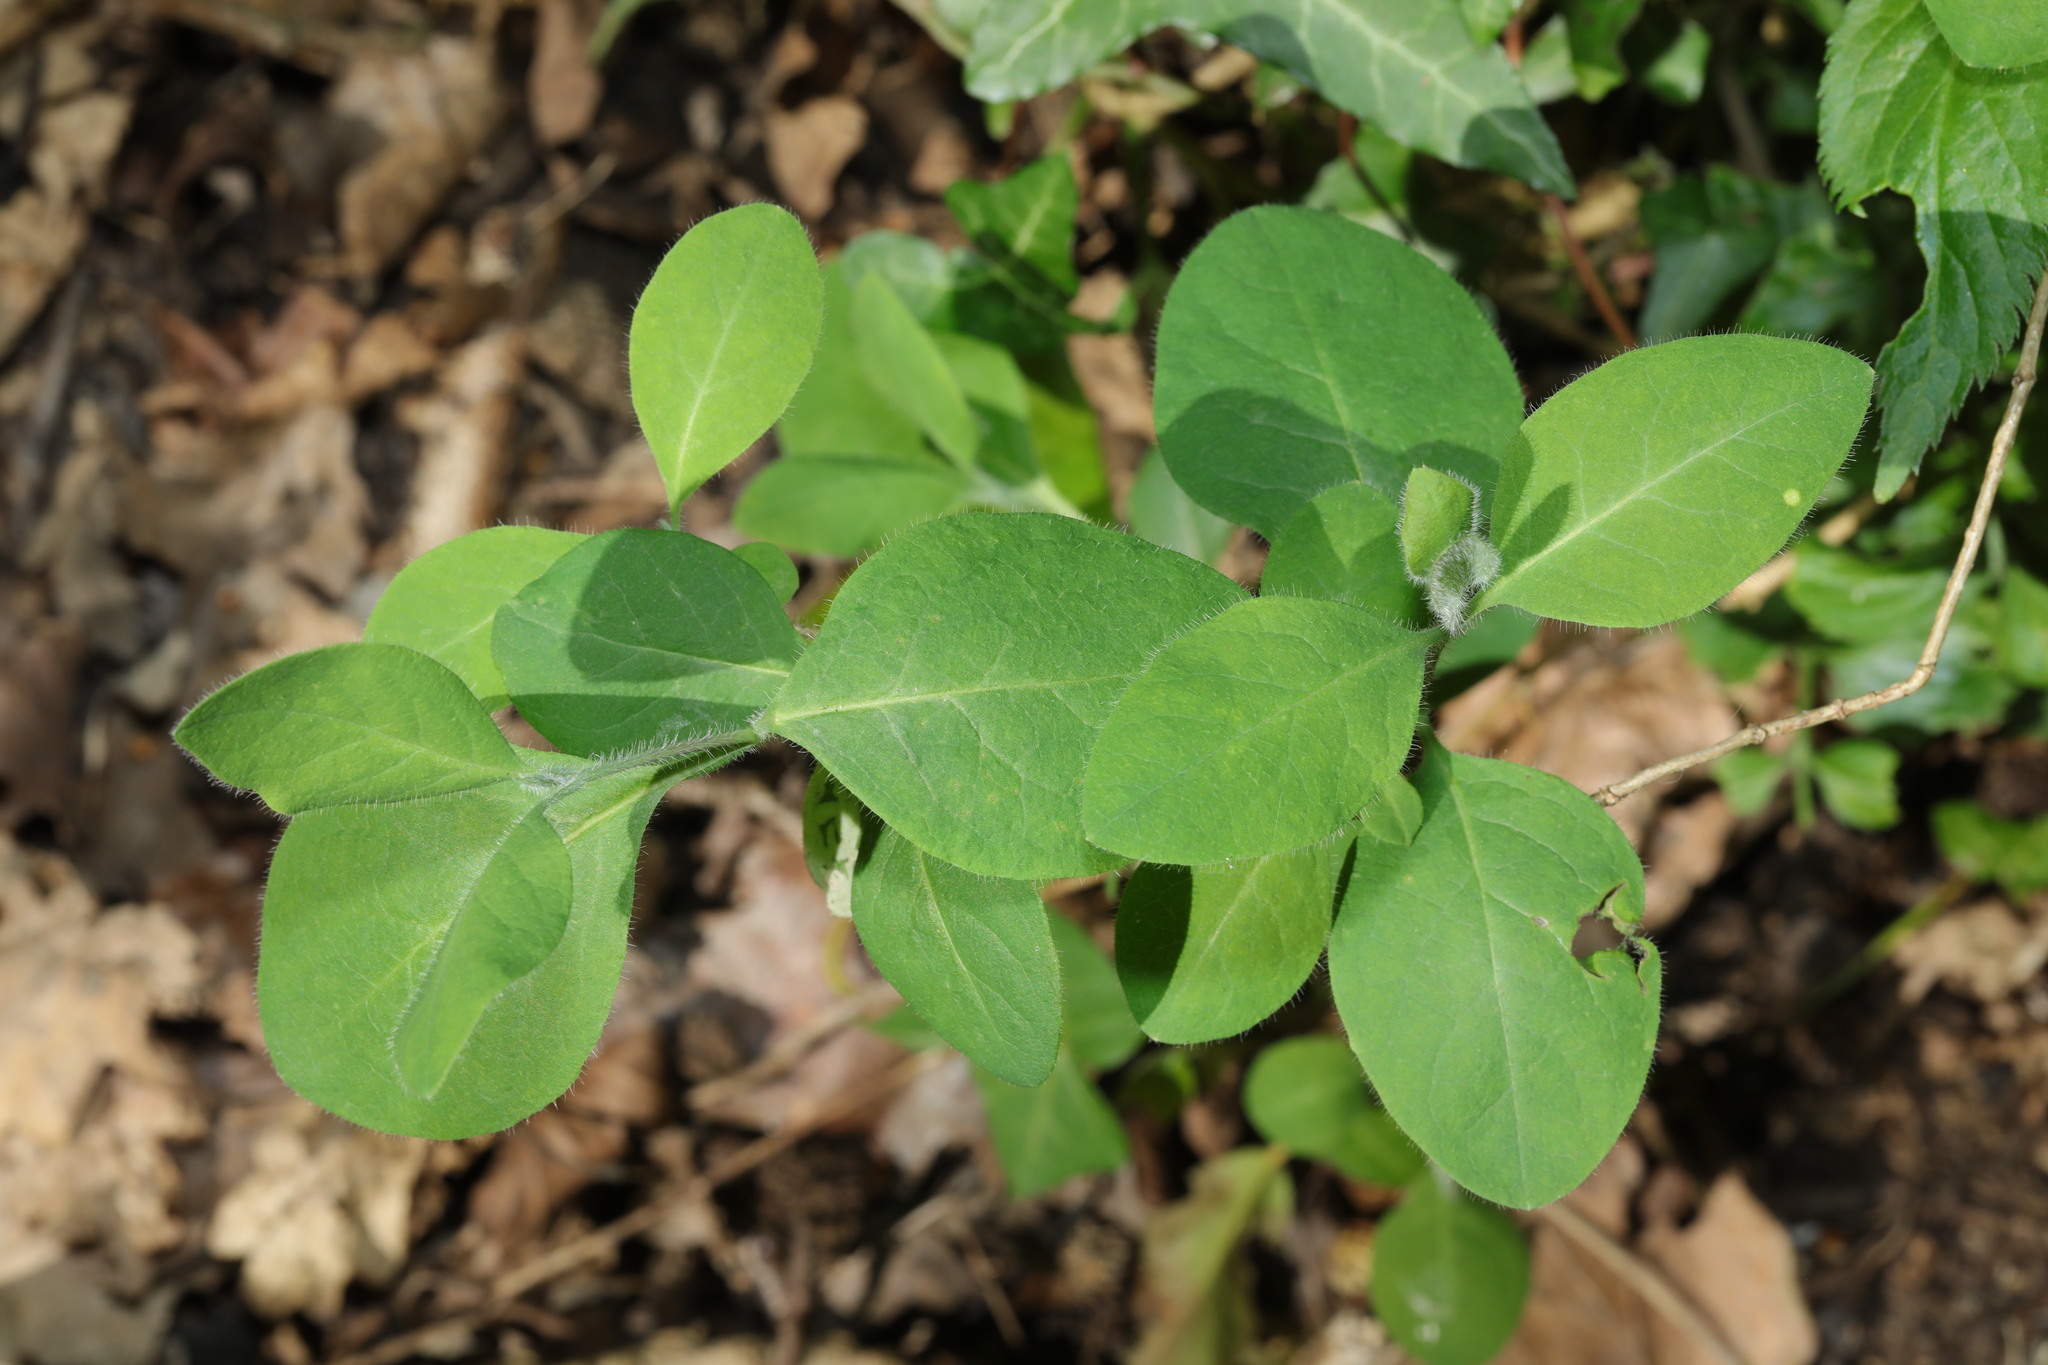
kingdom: Plantae
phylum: Tracheophyta
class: Magnoliopsida
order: Dipsacales
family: Caprifoliaceae
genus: Lonicera
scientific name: Lonicera periclymenum
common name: European honeysuckle
